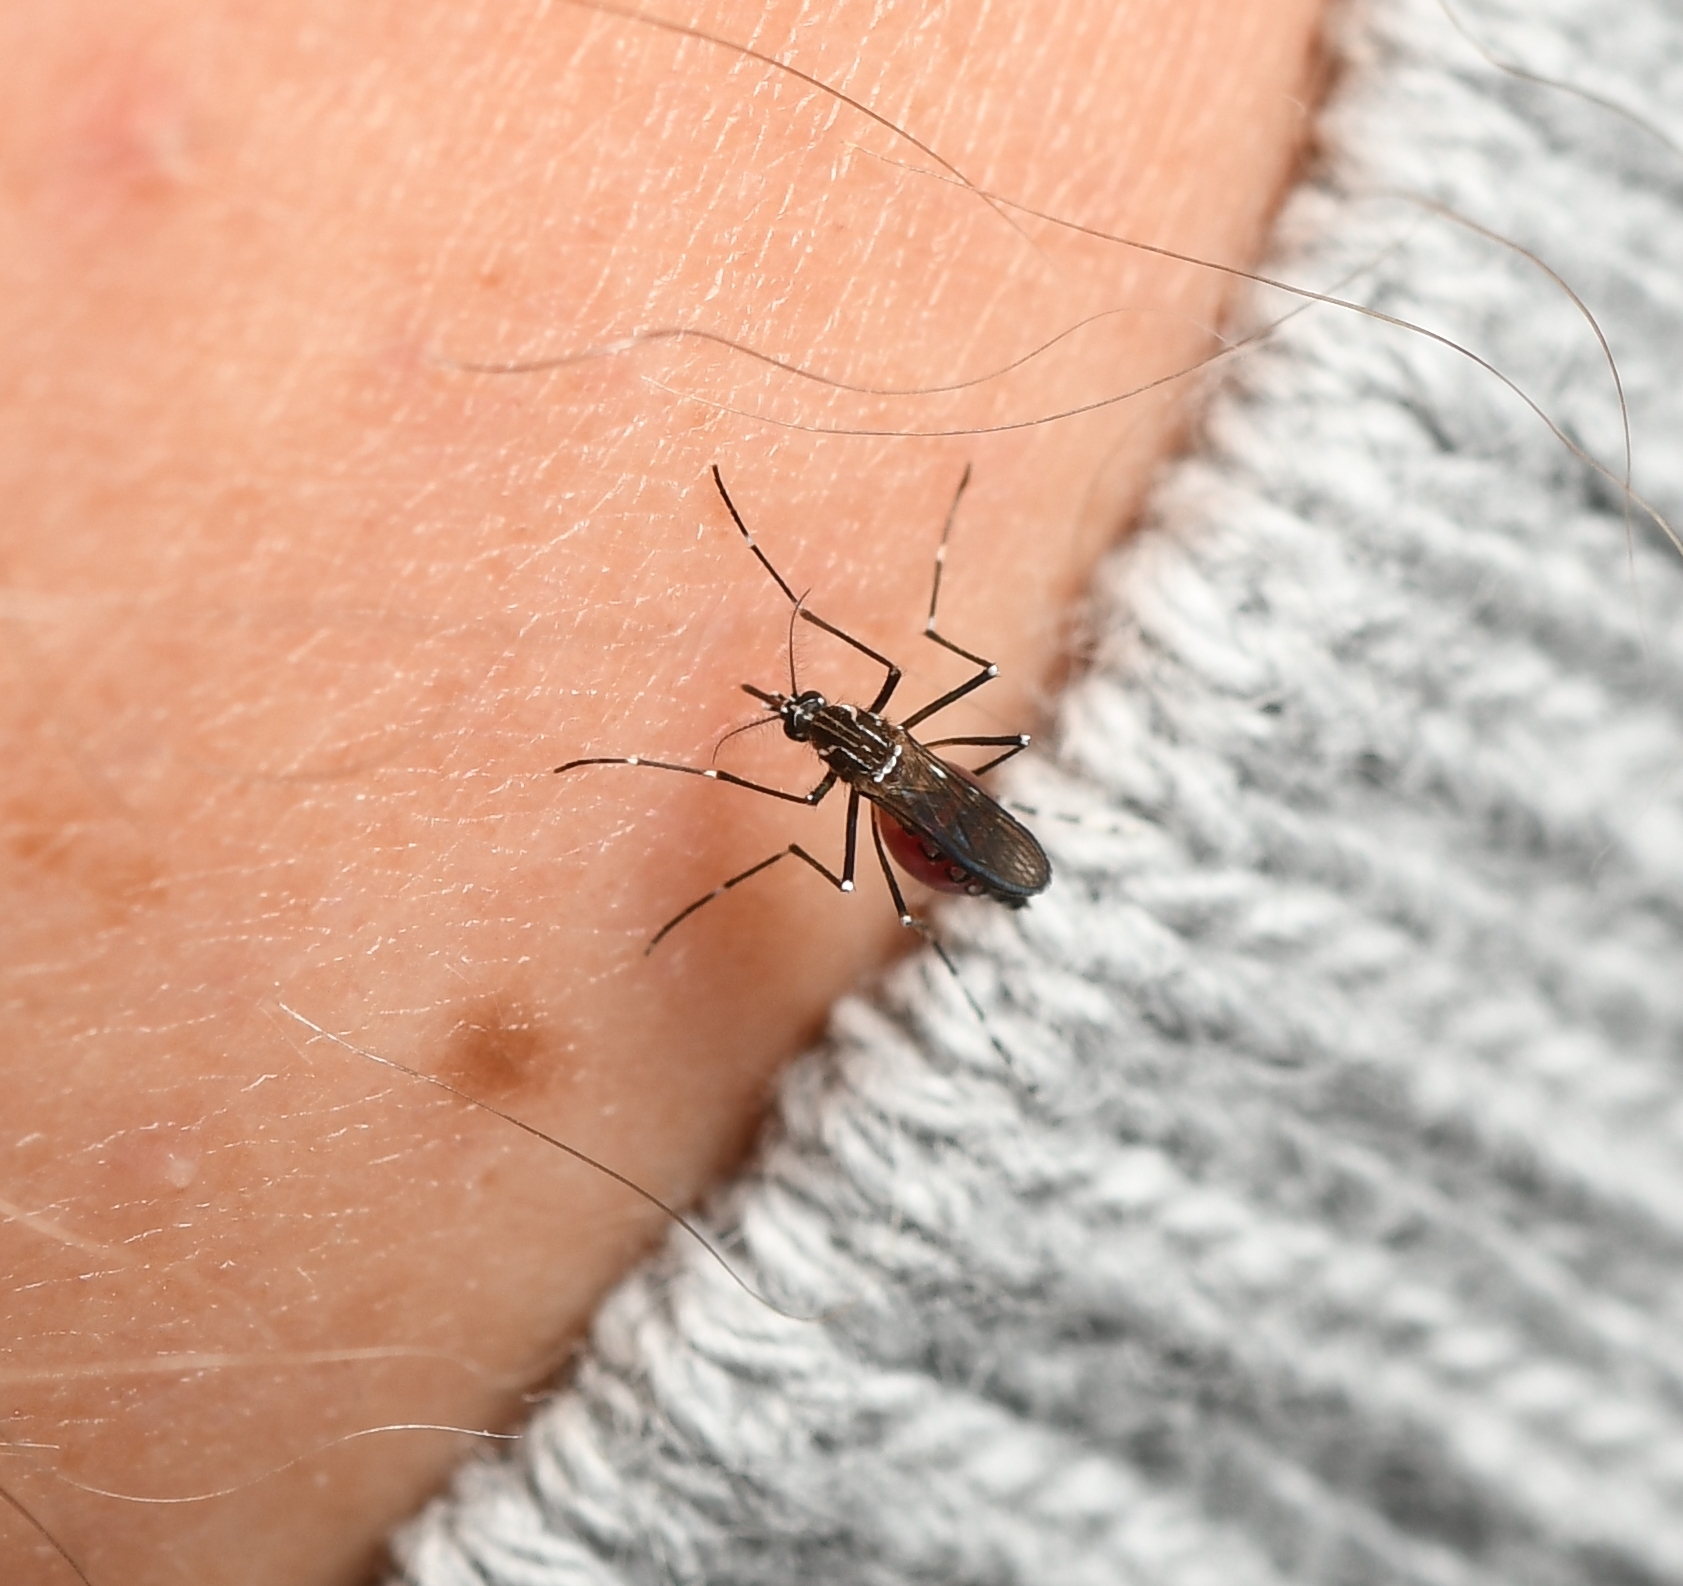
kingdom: Animalia
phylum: Arthropoda
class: Insecta
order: Diptera
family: Culicidae
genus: Aedes
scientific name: Aedes aegypti
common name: Yellow fever mosquito
